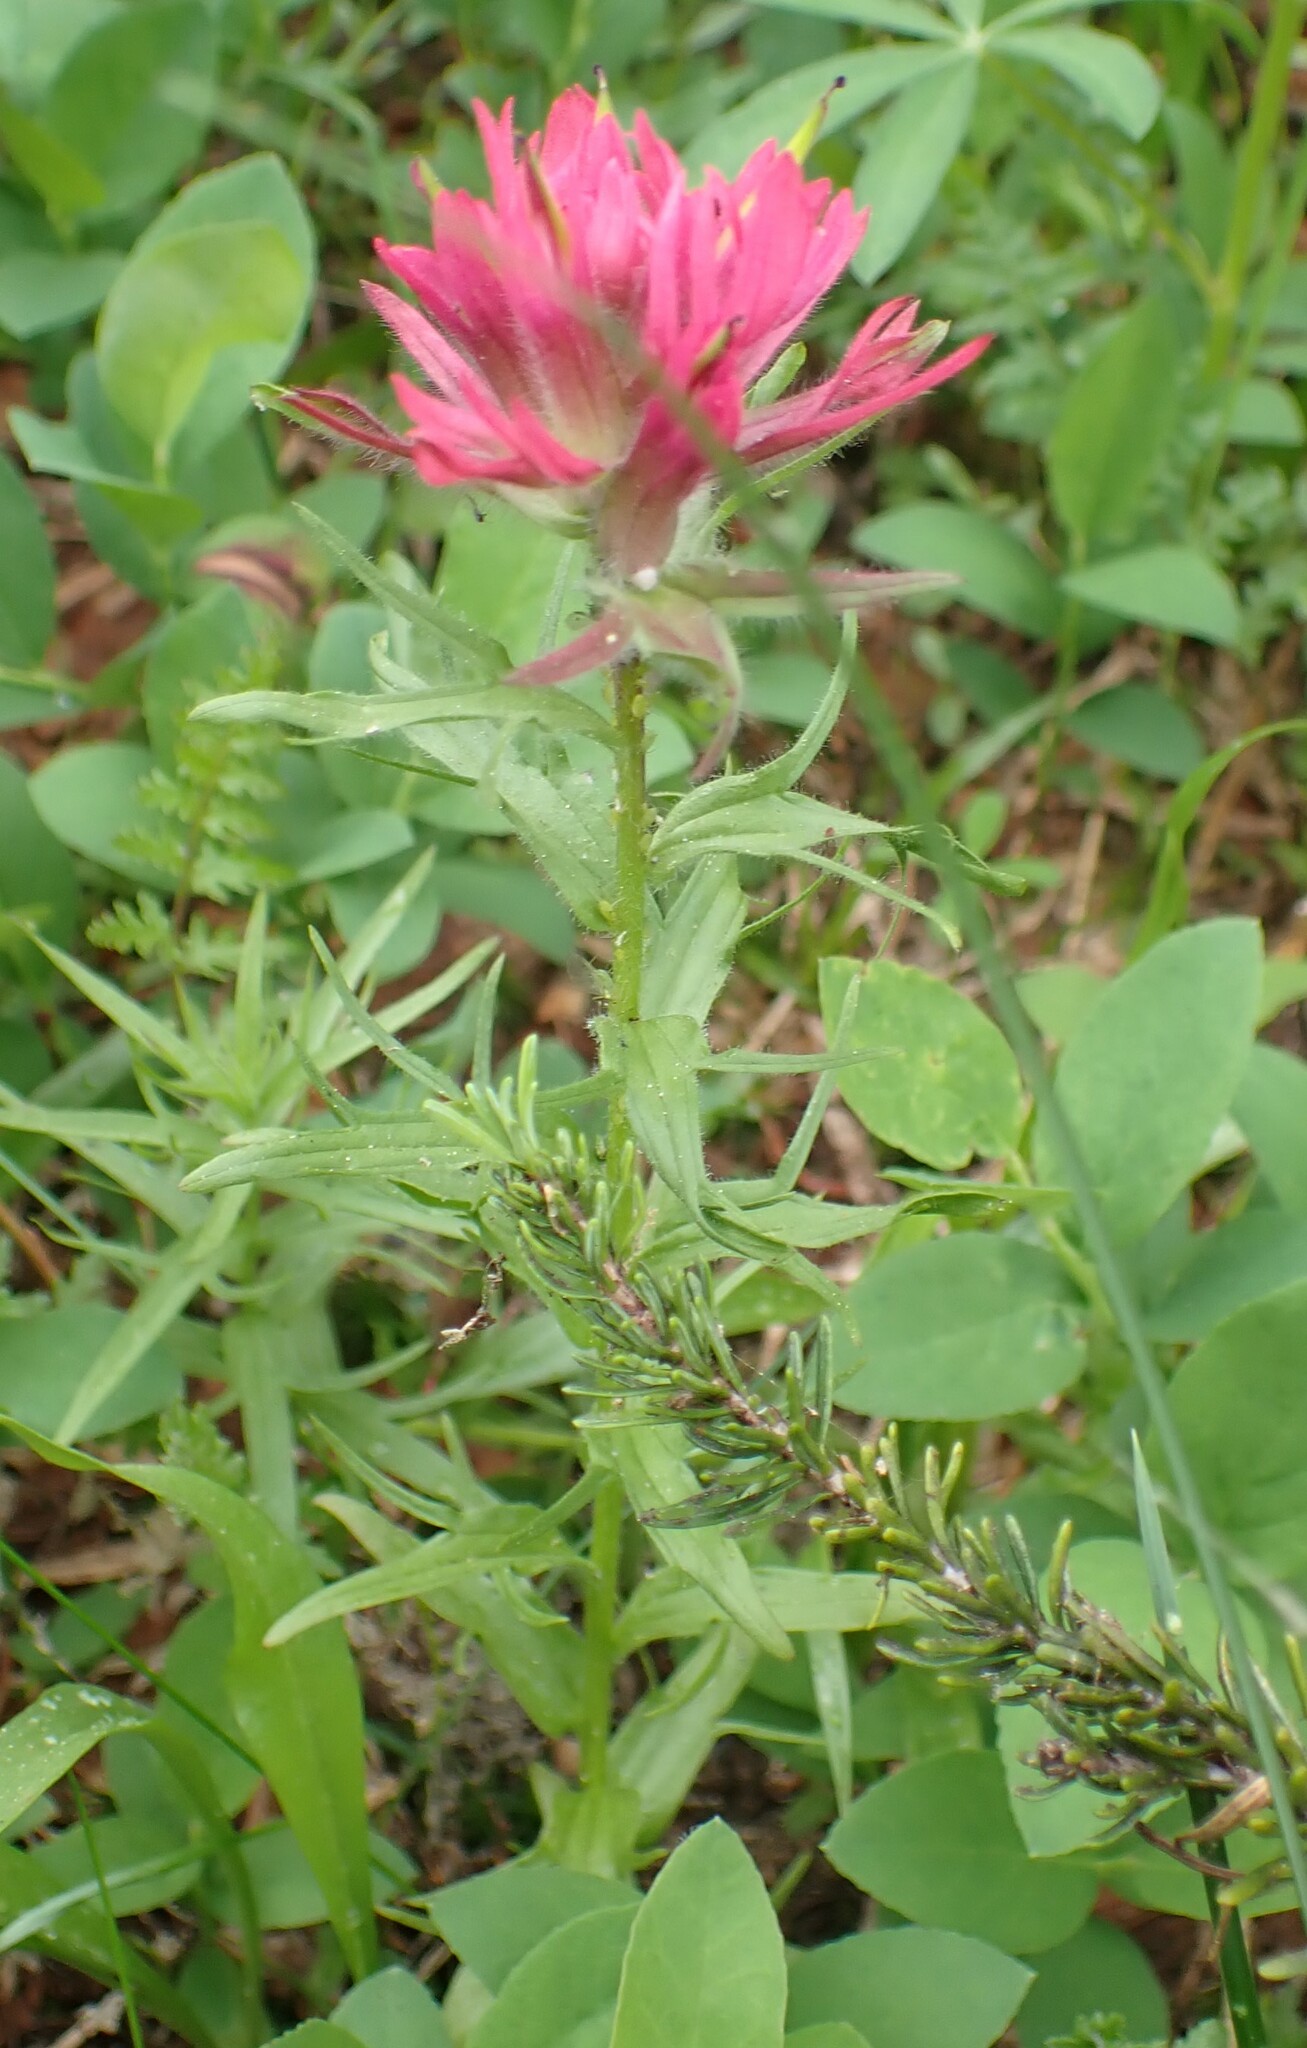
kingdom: Plantae
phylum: Tracheophyta
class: Magnoliopsida
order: Lamiales
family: Orobanchaceae
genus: Castilleja
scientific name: Castilleja parviflora
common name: Mountain paintbrush
